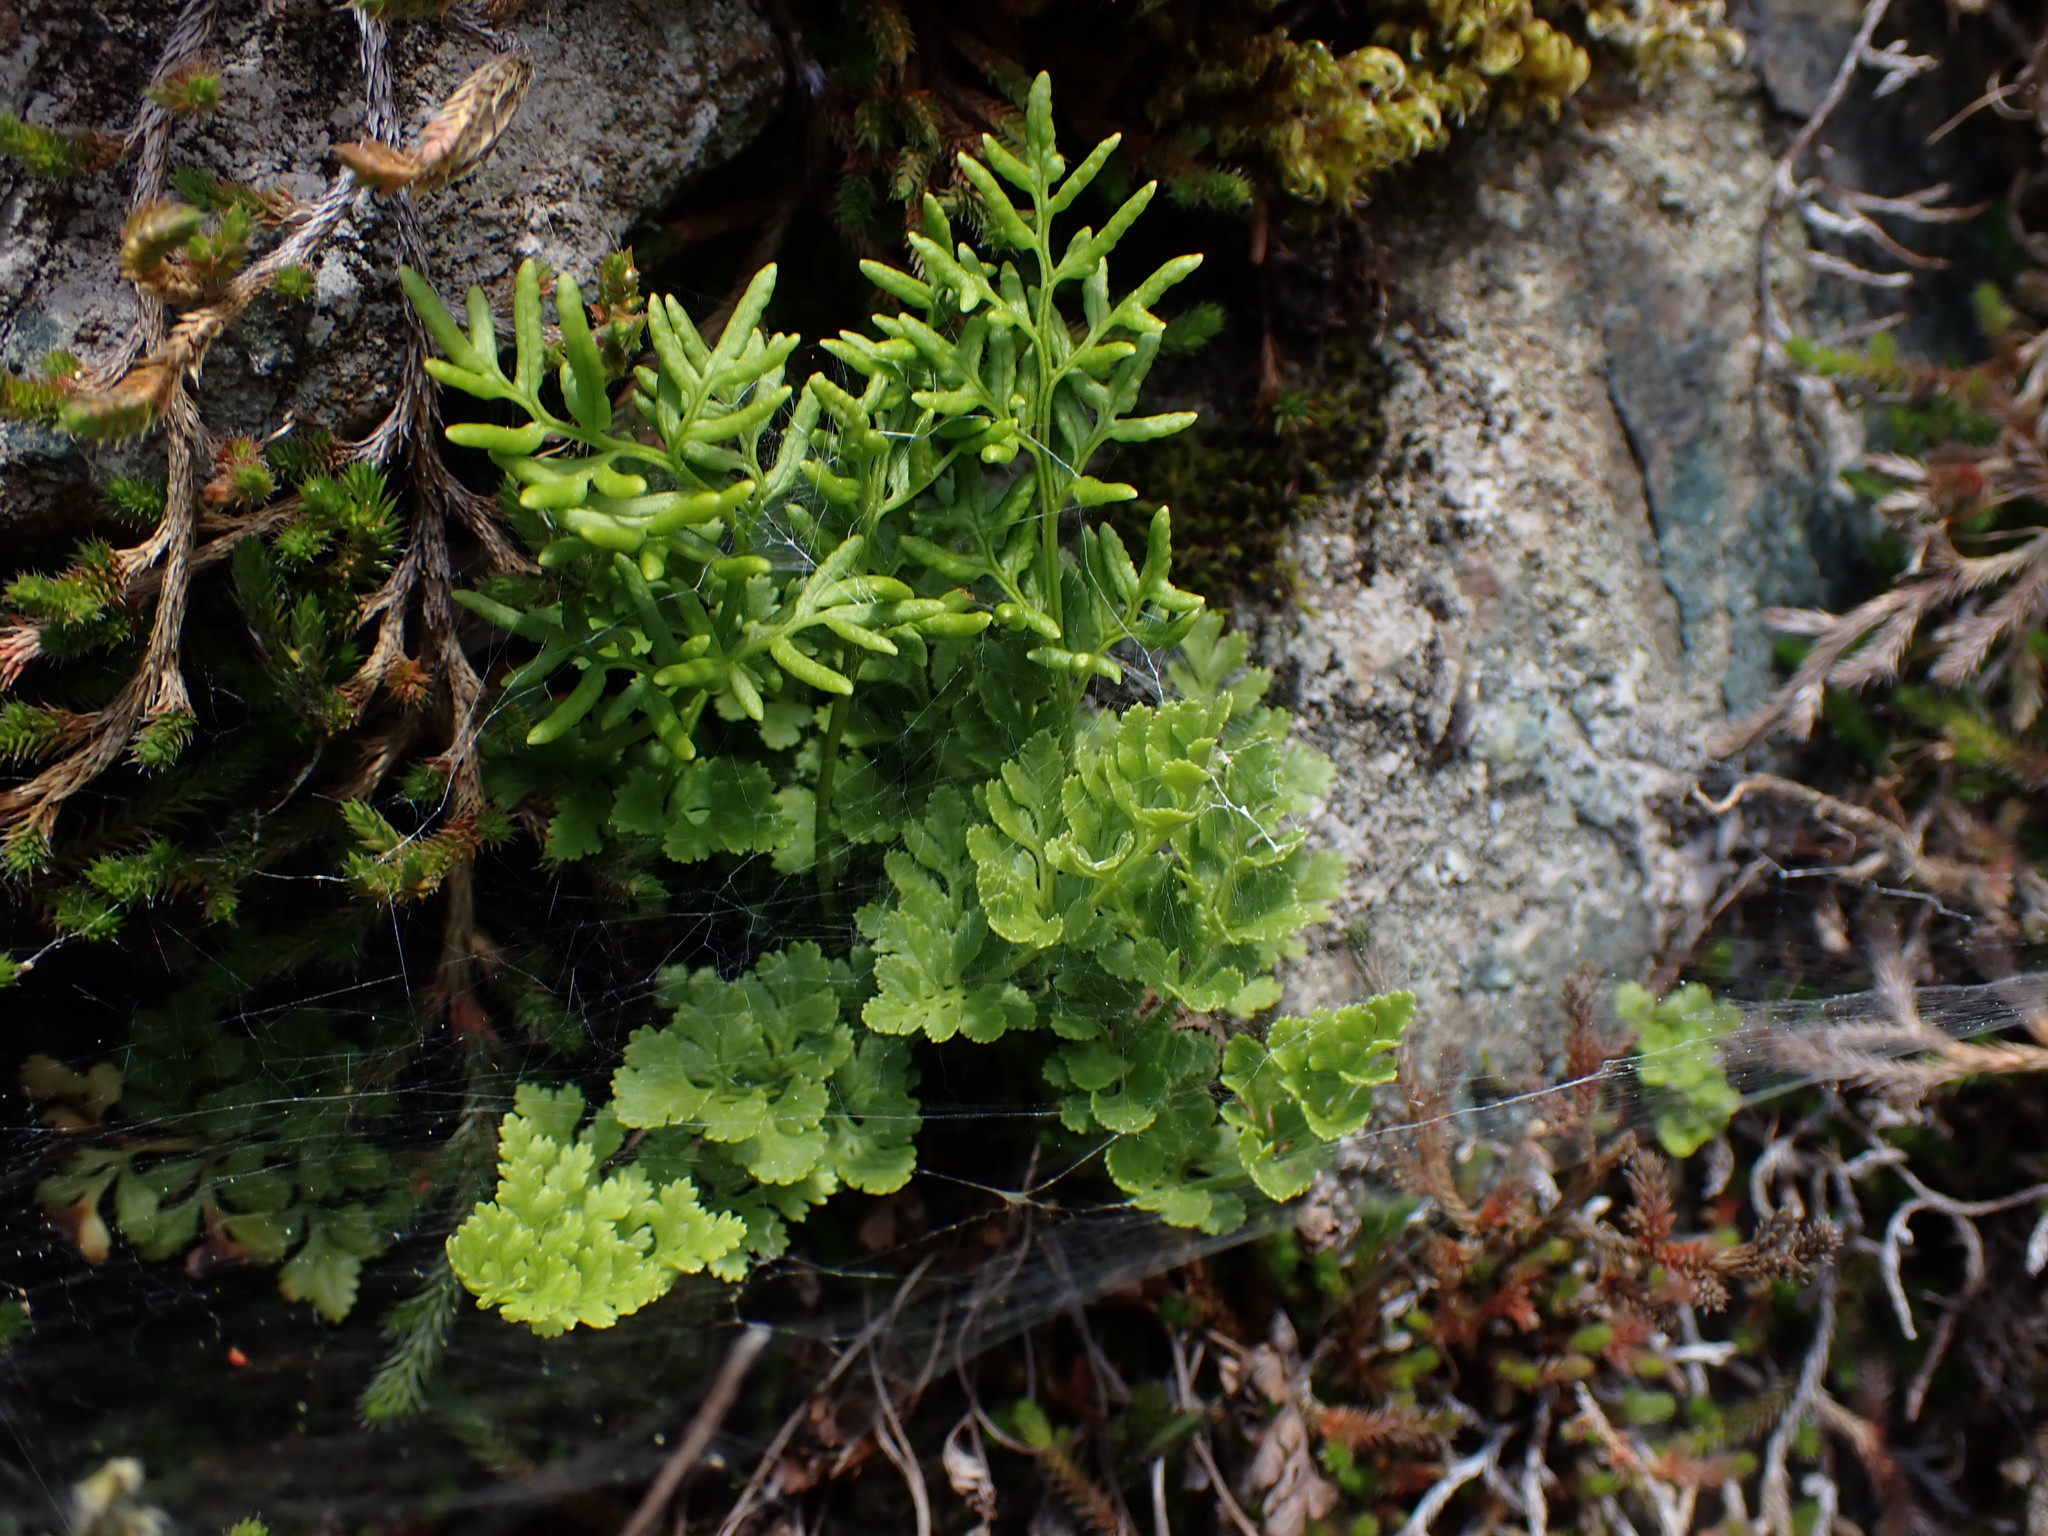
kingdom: Plantae
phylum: Tracheophyta
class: Polypodiopsida
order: Polypodiales
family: Pteridaceae
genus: Cryptogramma
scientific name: Cryptogramma acrostichoides
